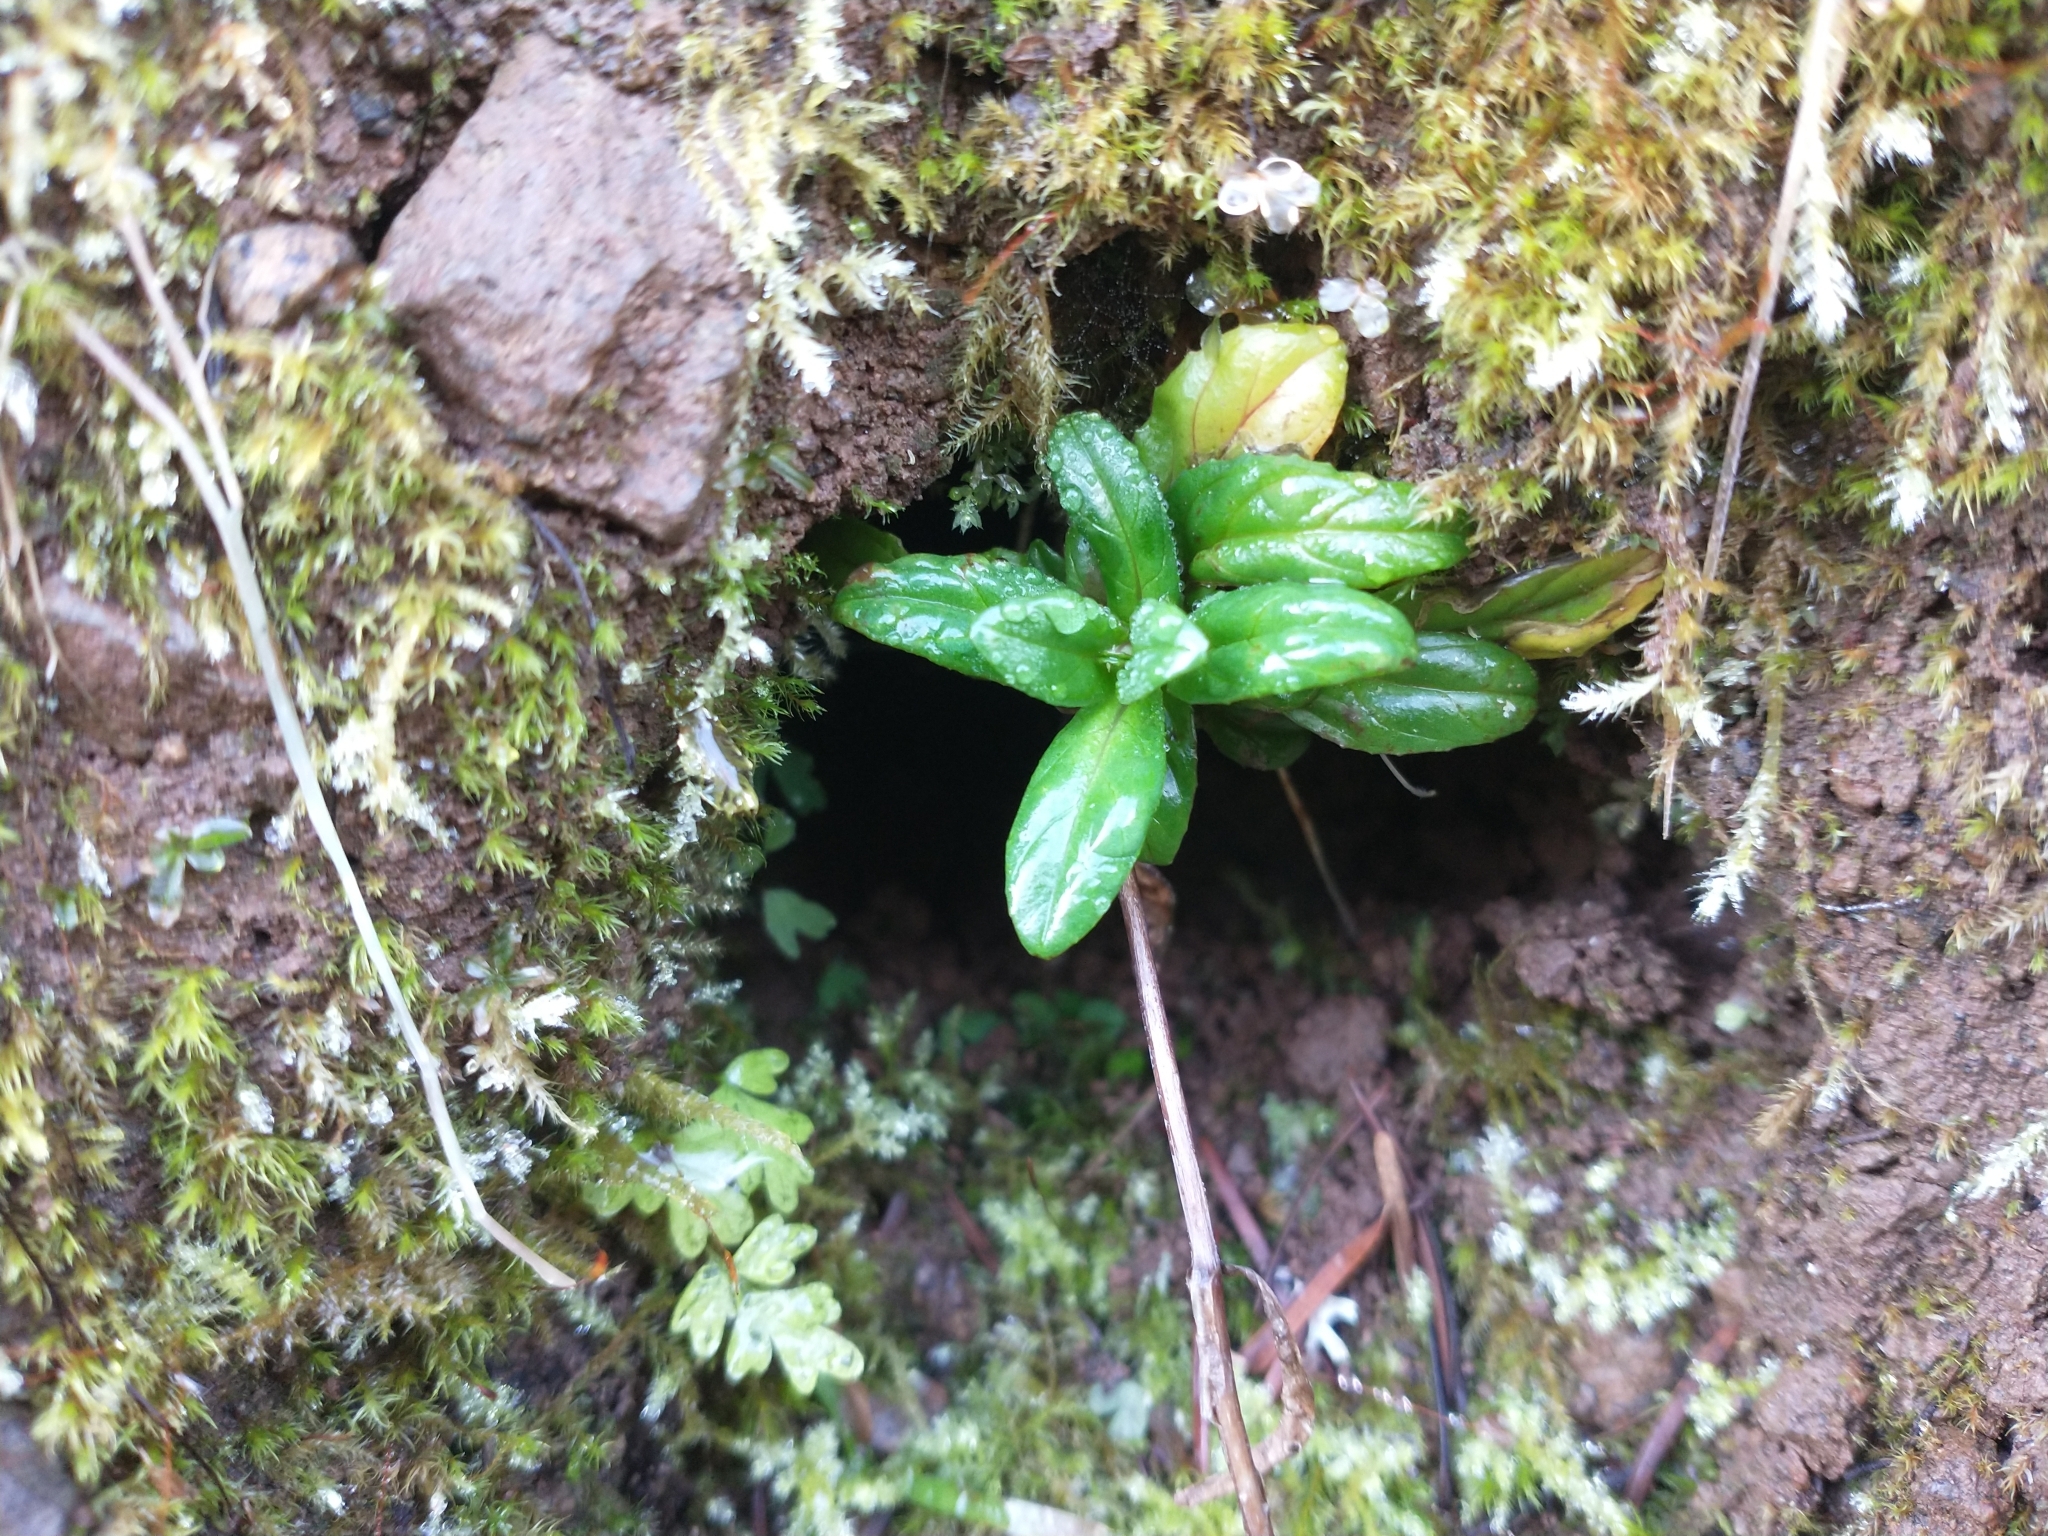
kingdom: Plantae
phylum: Tracheophyta
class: Magnoliopsida
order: Myrtales
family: Onagraceae
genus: Epilobium
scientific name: Epilobium ciliatum
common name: American willowherb
